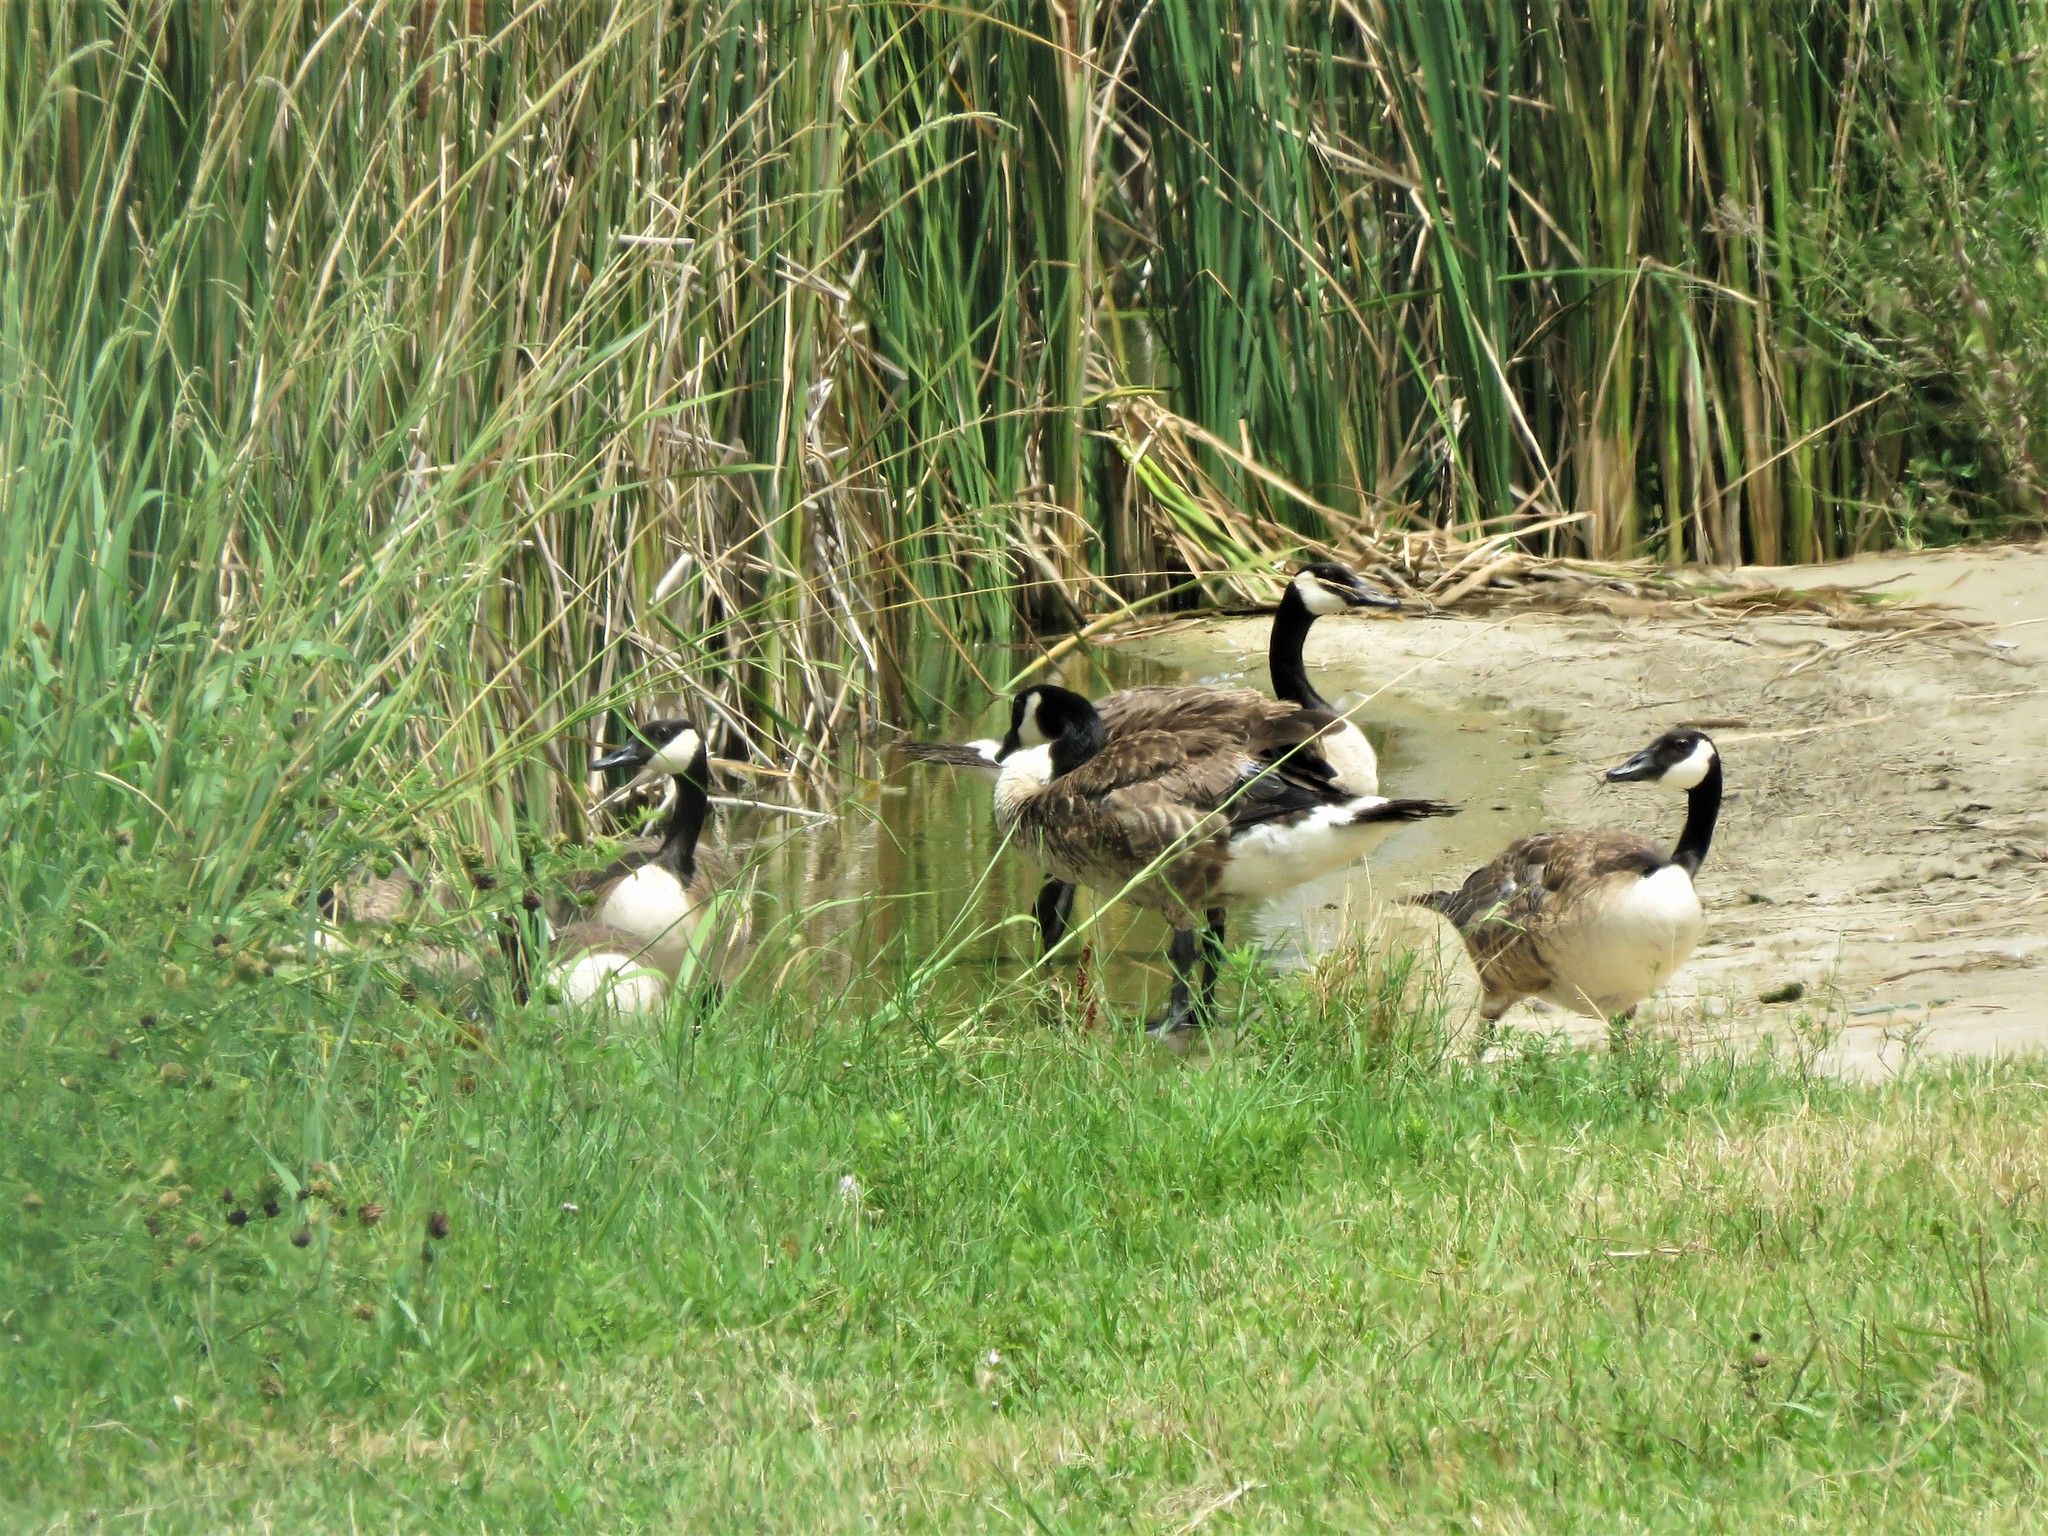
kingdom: Animalia
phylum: Chordata
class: Aves
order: Anseriformes
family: Anatidae
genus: Branta
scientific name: Branta canadensis
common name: Canada goose
